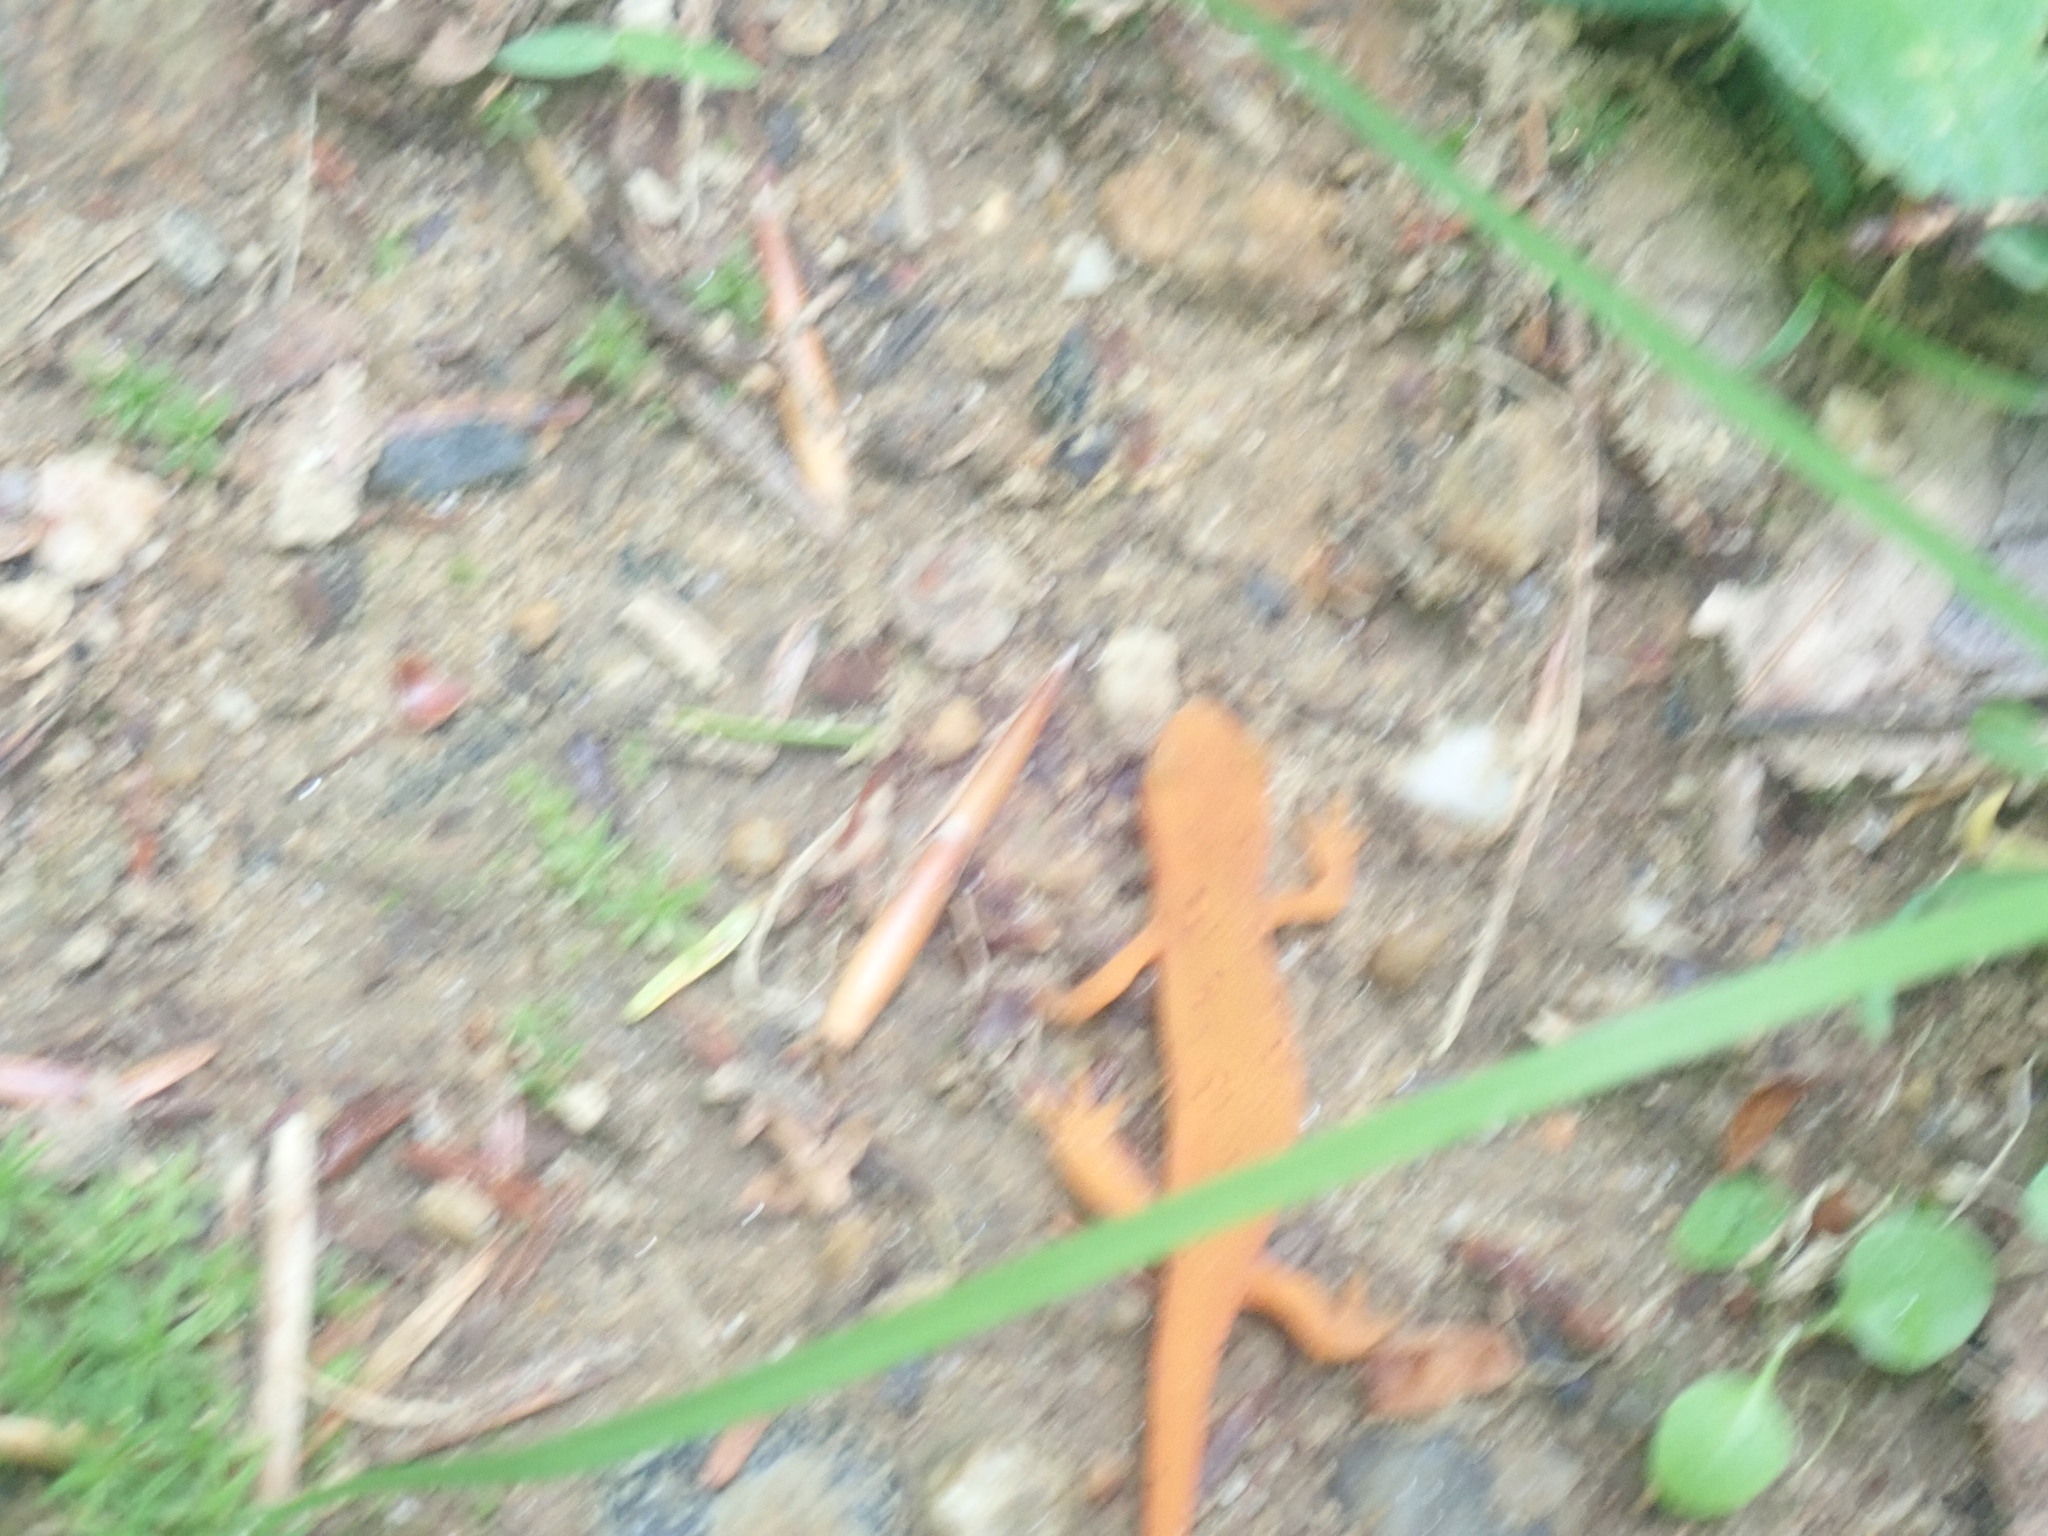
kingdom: Animalia
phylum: Chordata
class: Amphibia
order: Caudata
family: Salamandridae
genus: Notophthalmus
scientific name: Notophthalmus viridescens
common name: Eastern newt
